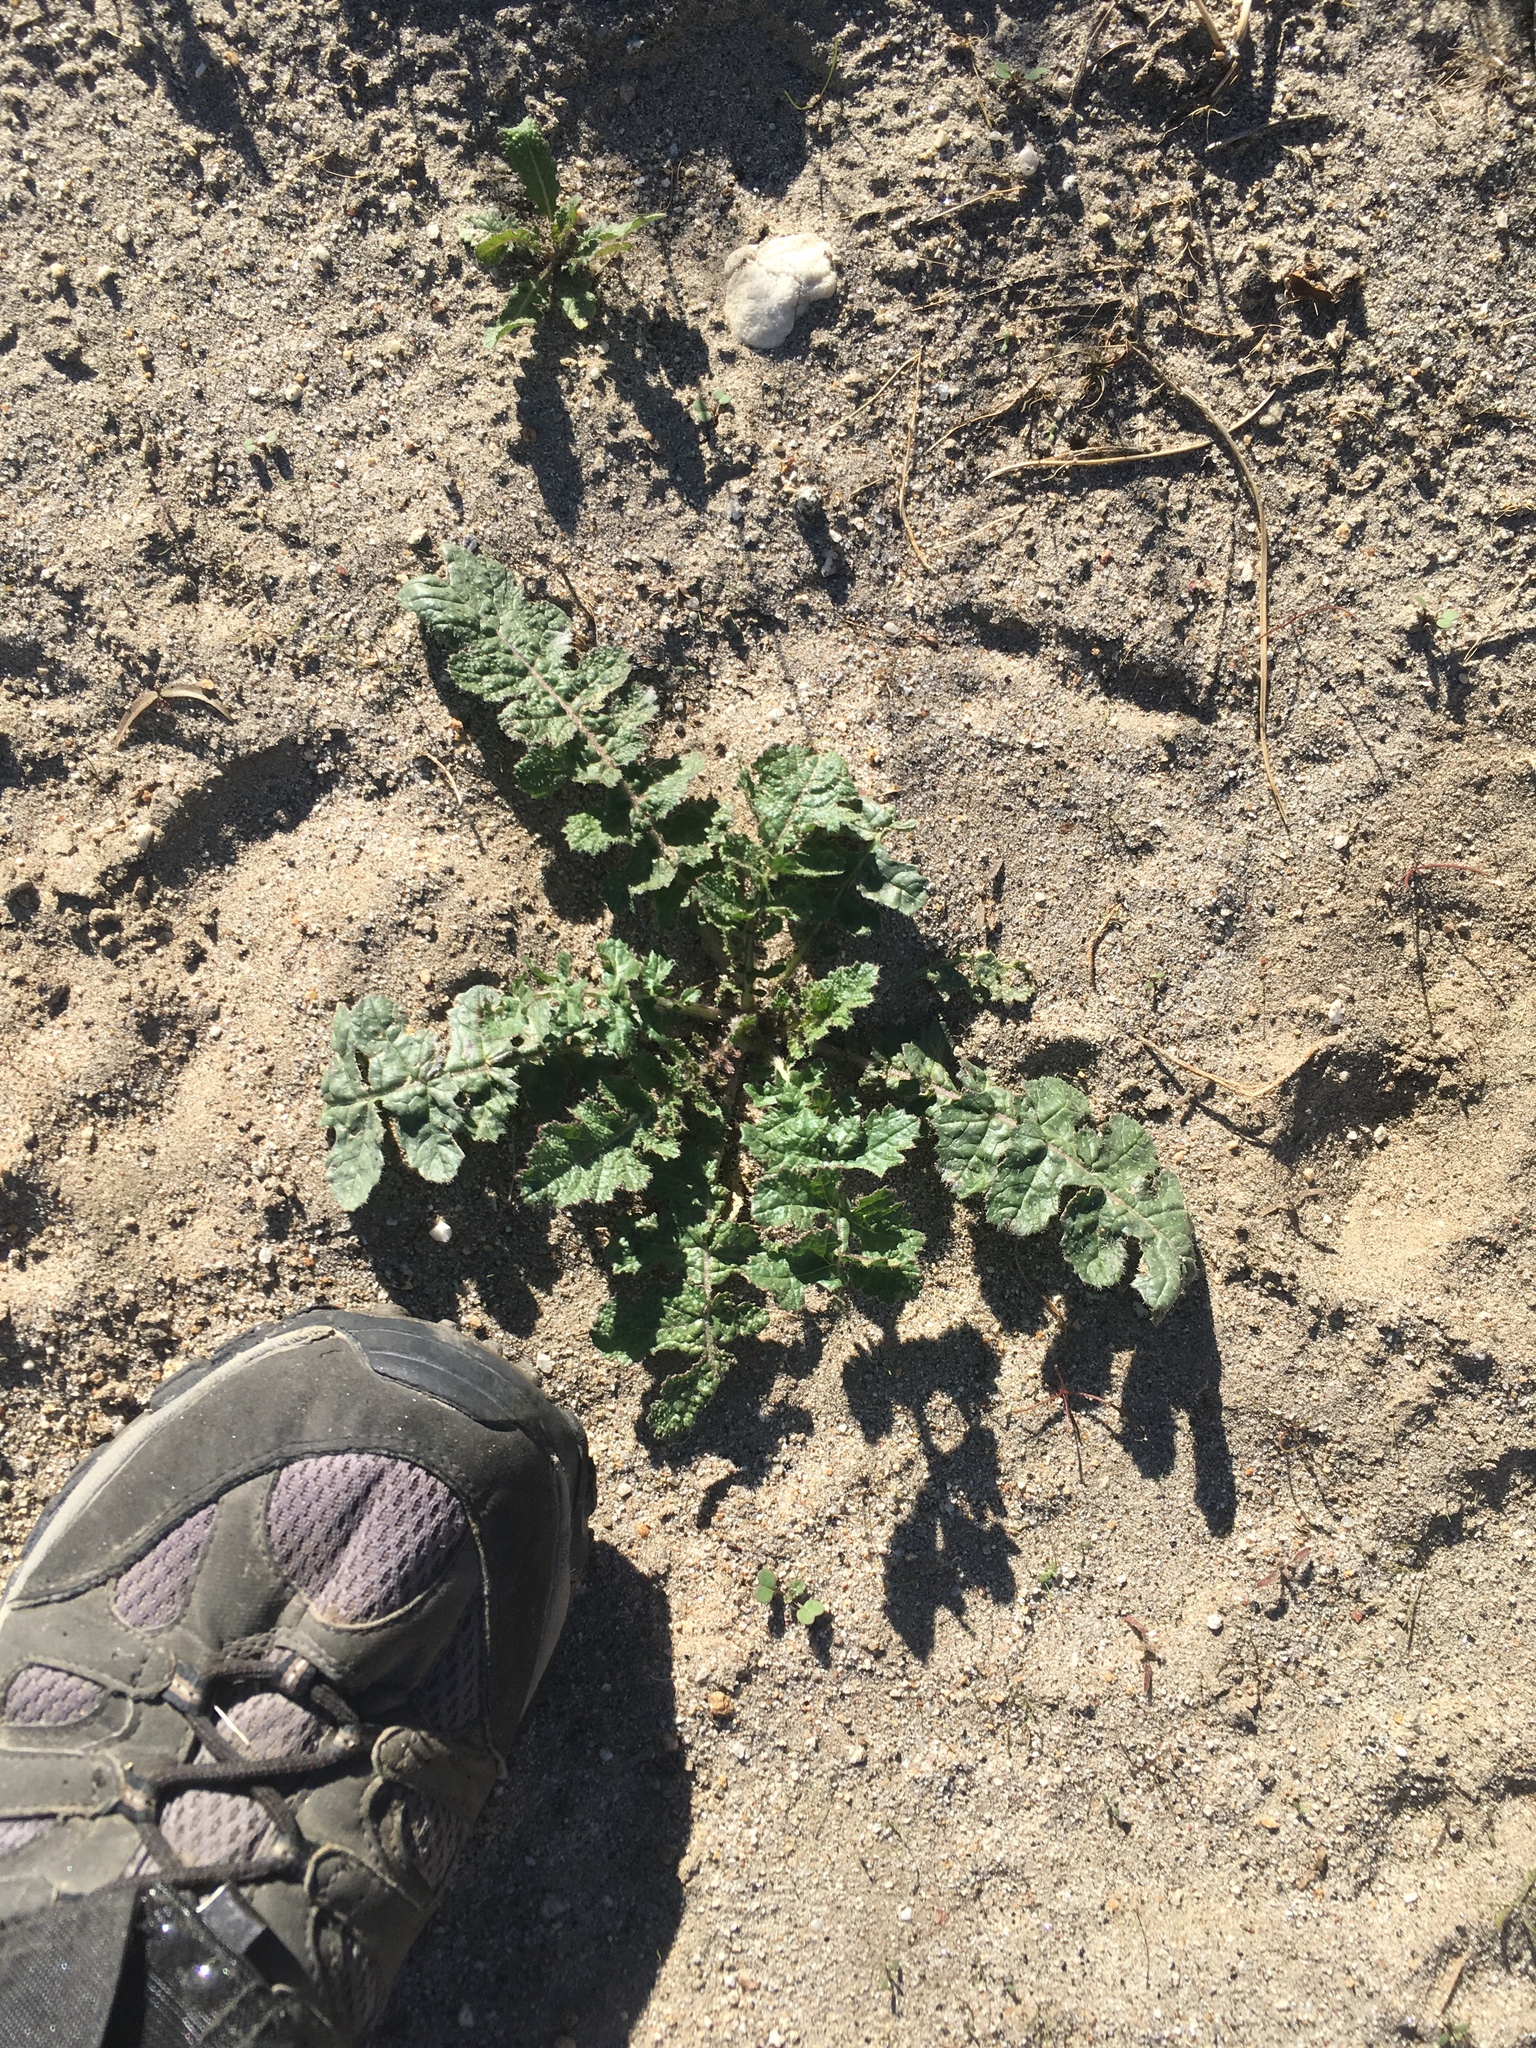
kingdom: Plantae
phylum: Tracheophyta
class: Magnoliopsida
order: Brassicales
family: Brassicaceae
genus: Brassica
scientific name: Brassica tournefortii
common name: Pale cabbage
